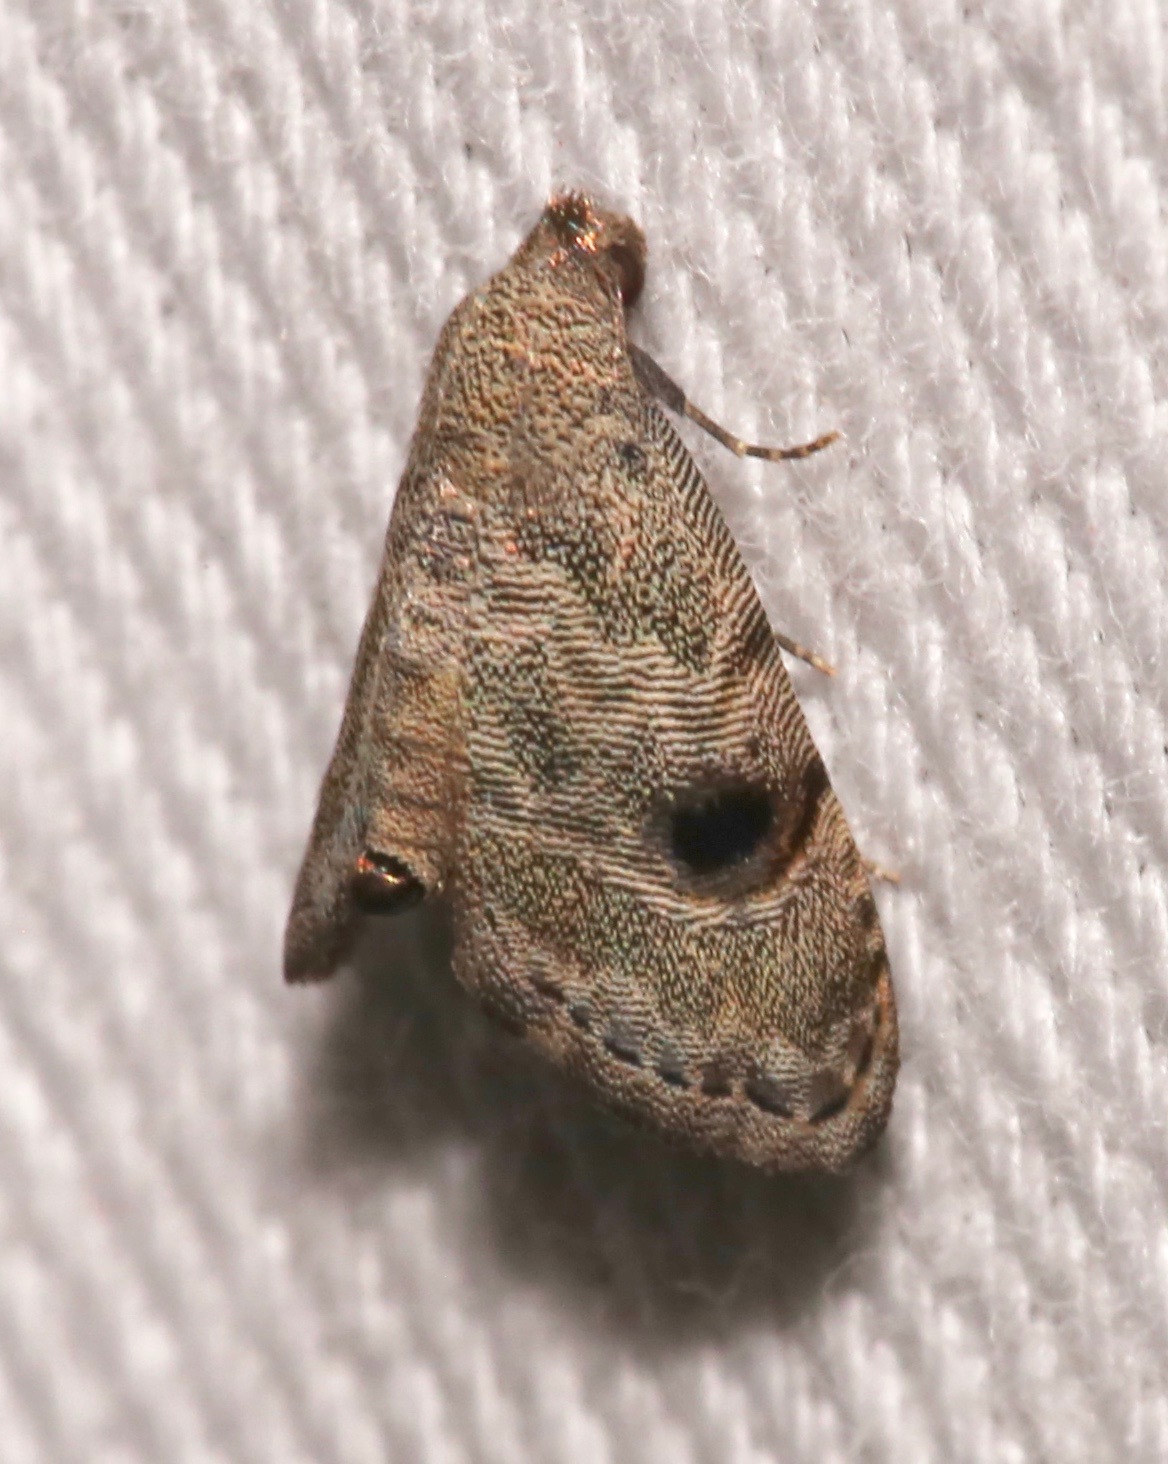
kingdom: Animalia
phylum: Arthropoda
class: Insecta
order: Lepidoptera
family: Noctuidae
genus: Abablemma
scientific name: Abablemma brimleyana
